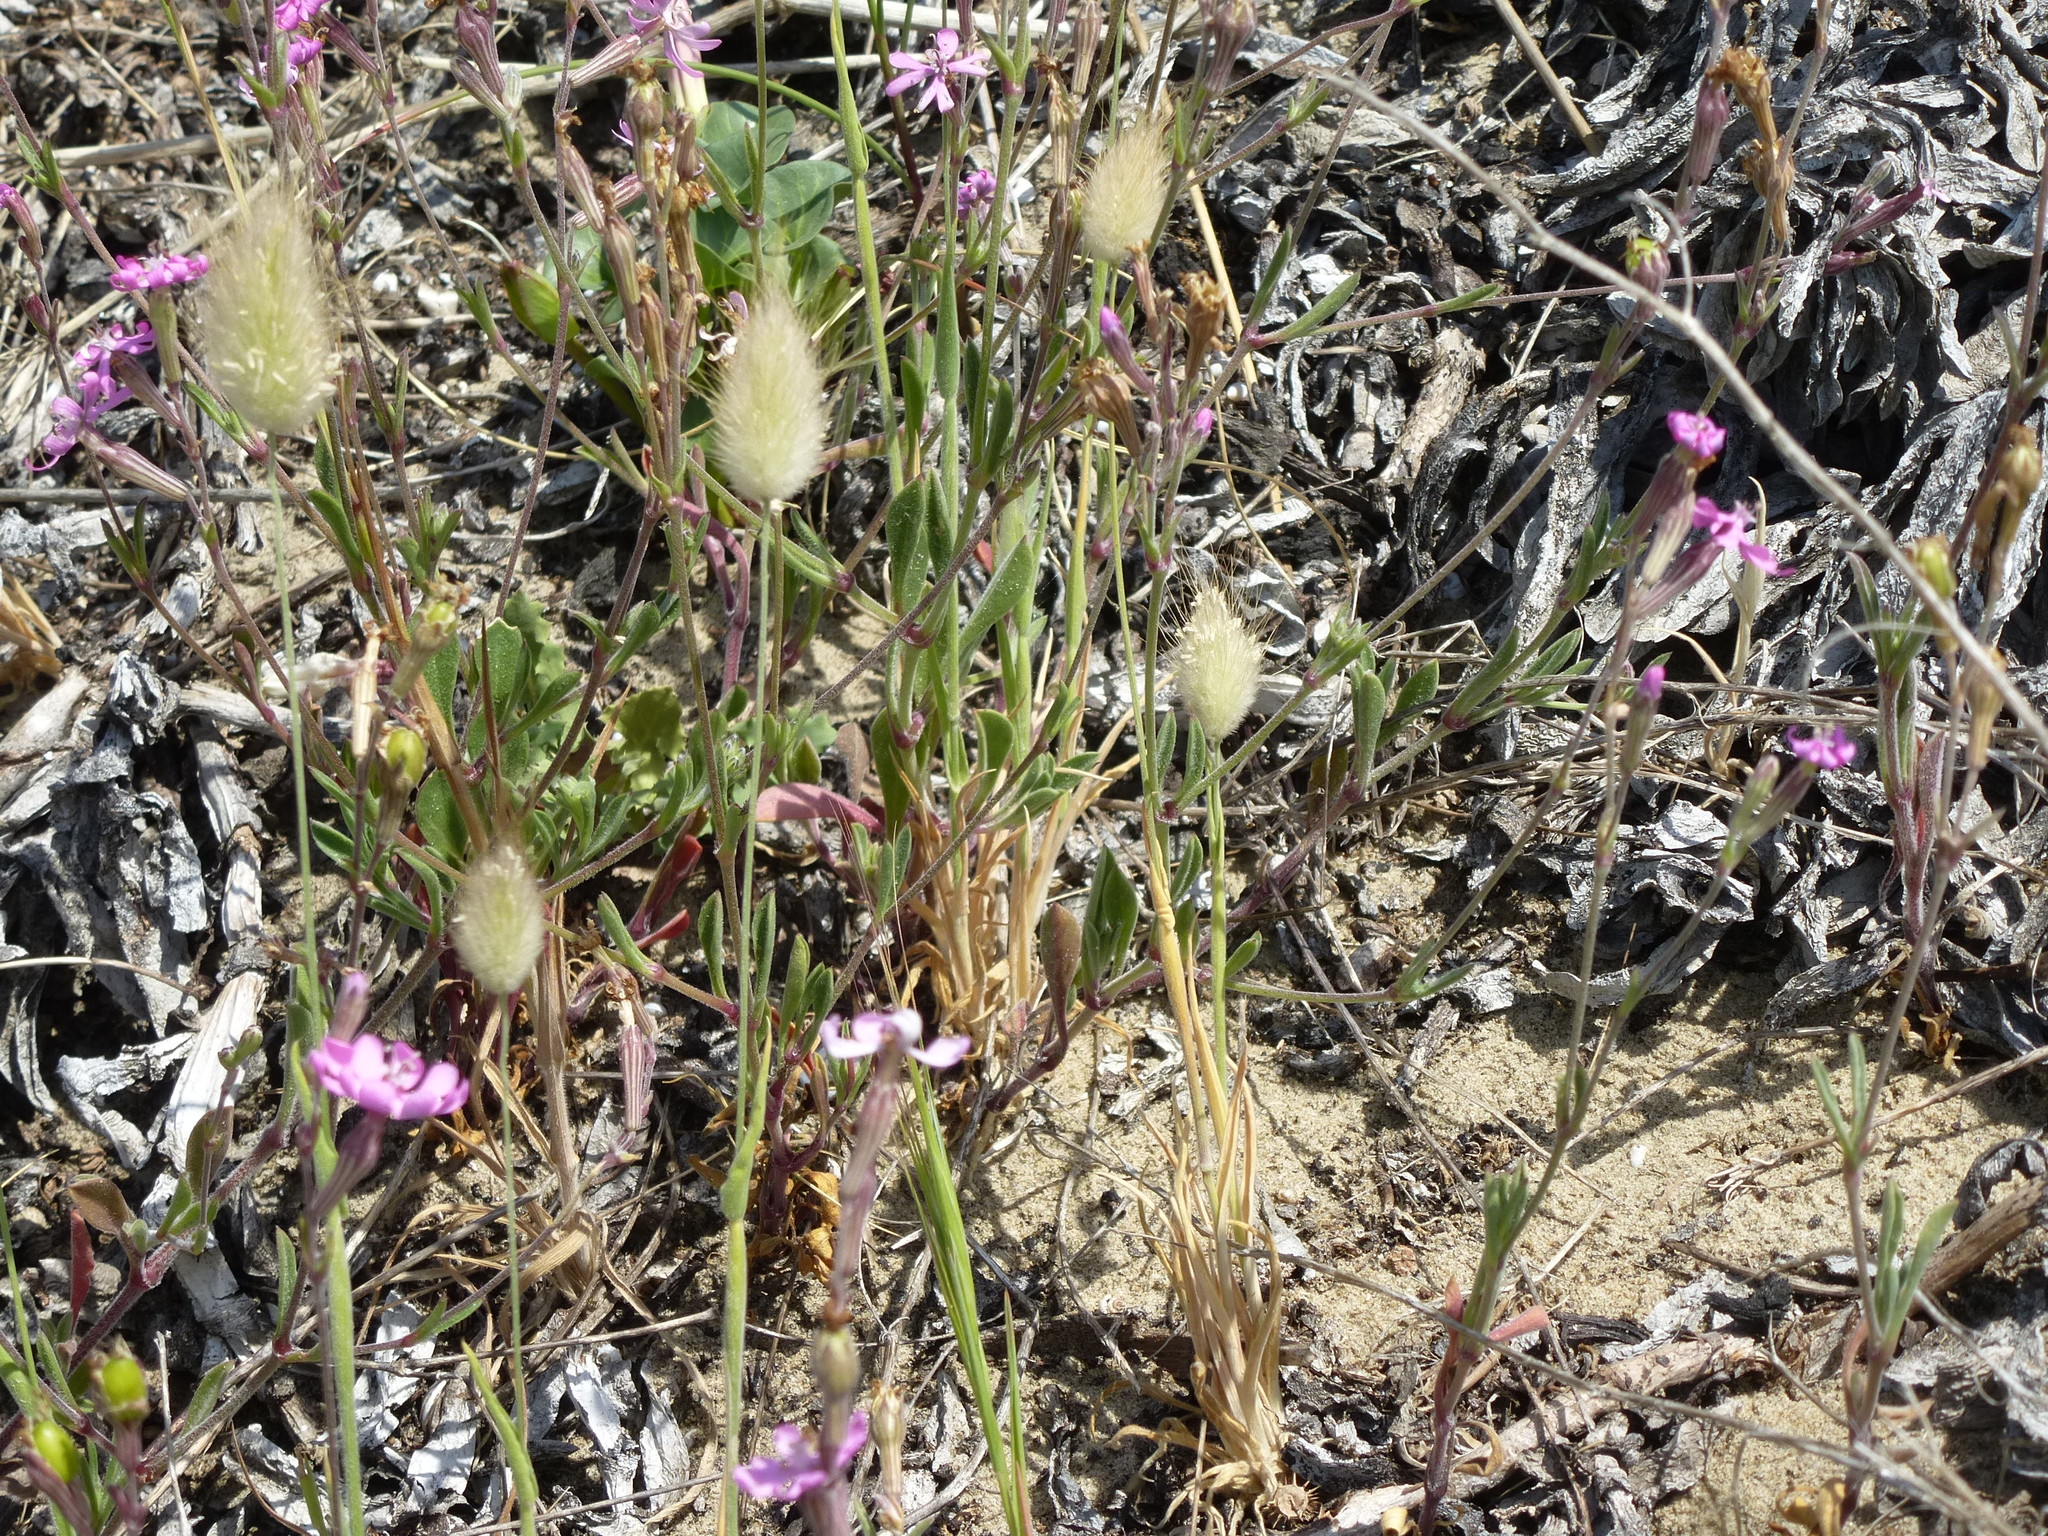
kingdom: Plantae
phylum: Tracheophyta
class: Liliopsida
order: Poales
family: Poaceae
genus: Lagurus
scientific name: Lagurus ovatus
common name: Hare's-tail
